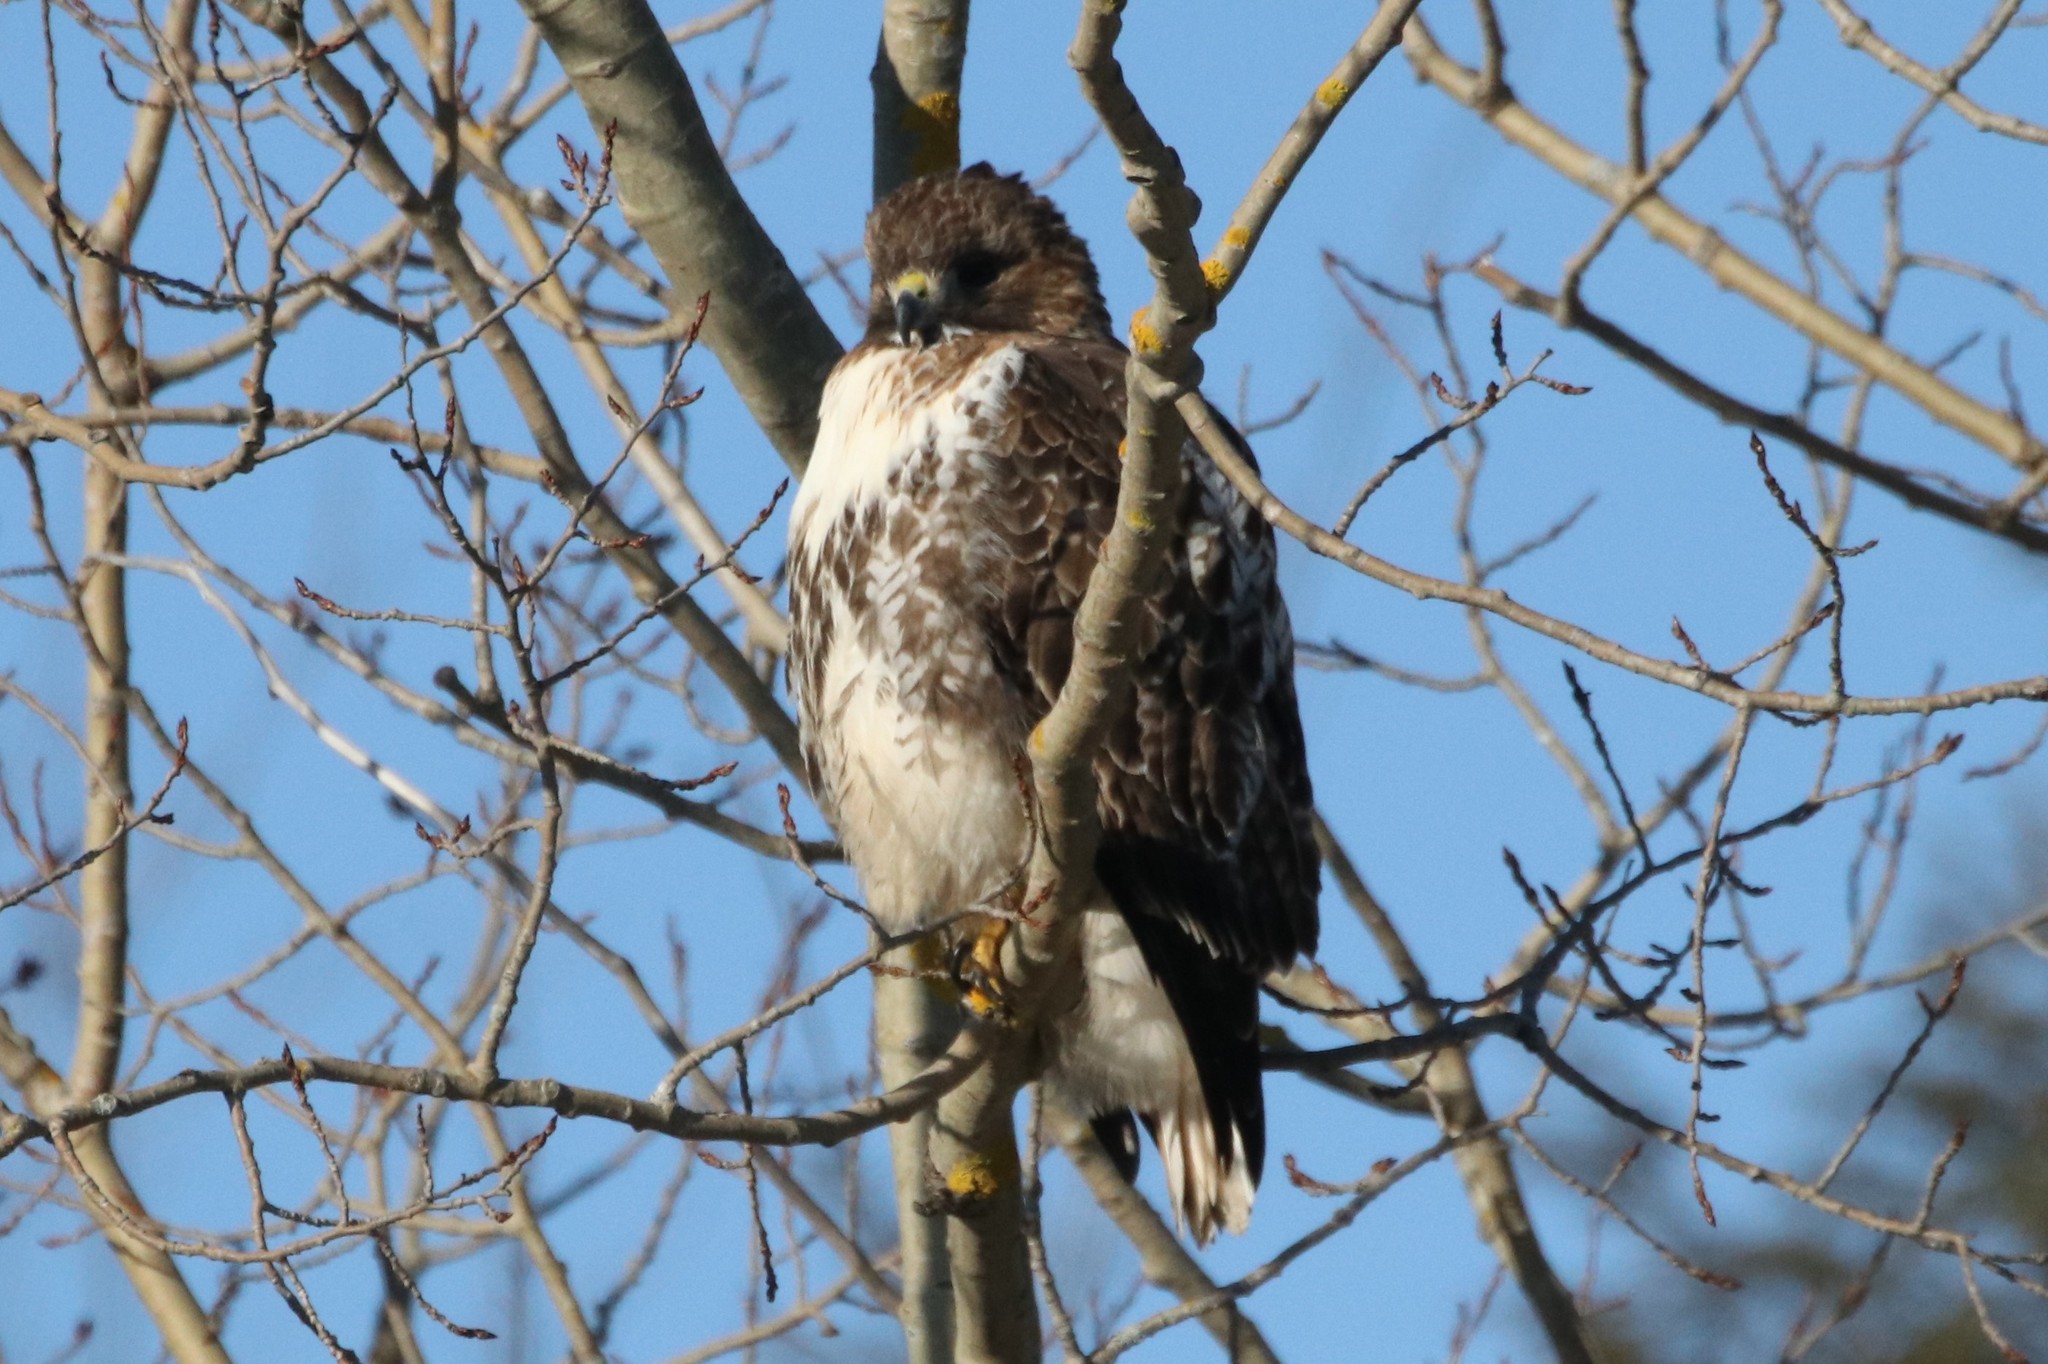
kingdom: Animalia
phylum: Chordata
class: Aves
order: Accipitriformes
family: Accipitridae
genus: Buteo
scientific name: Buteo jamaicensis
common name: Red-tailed hawk
